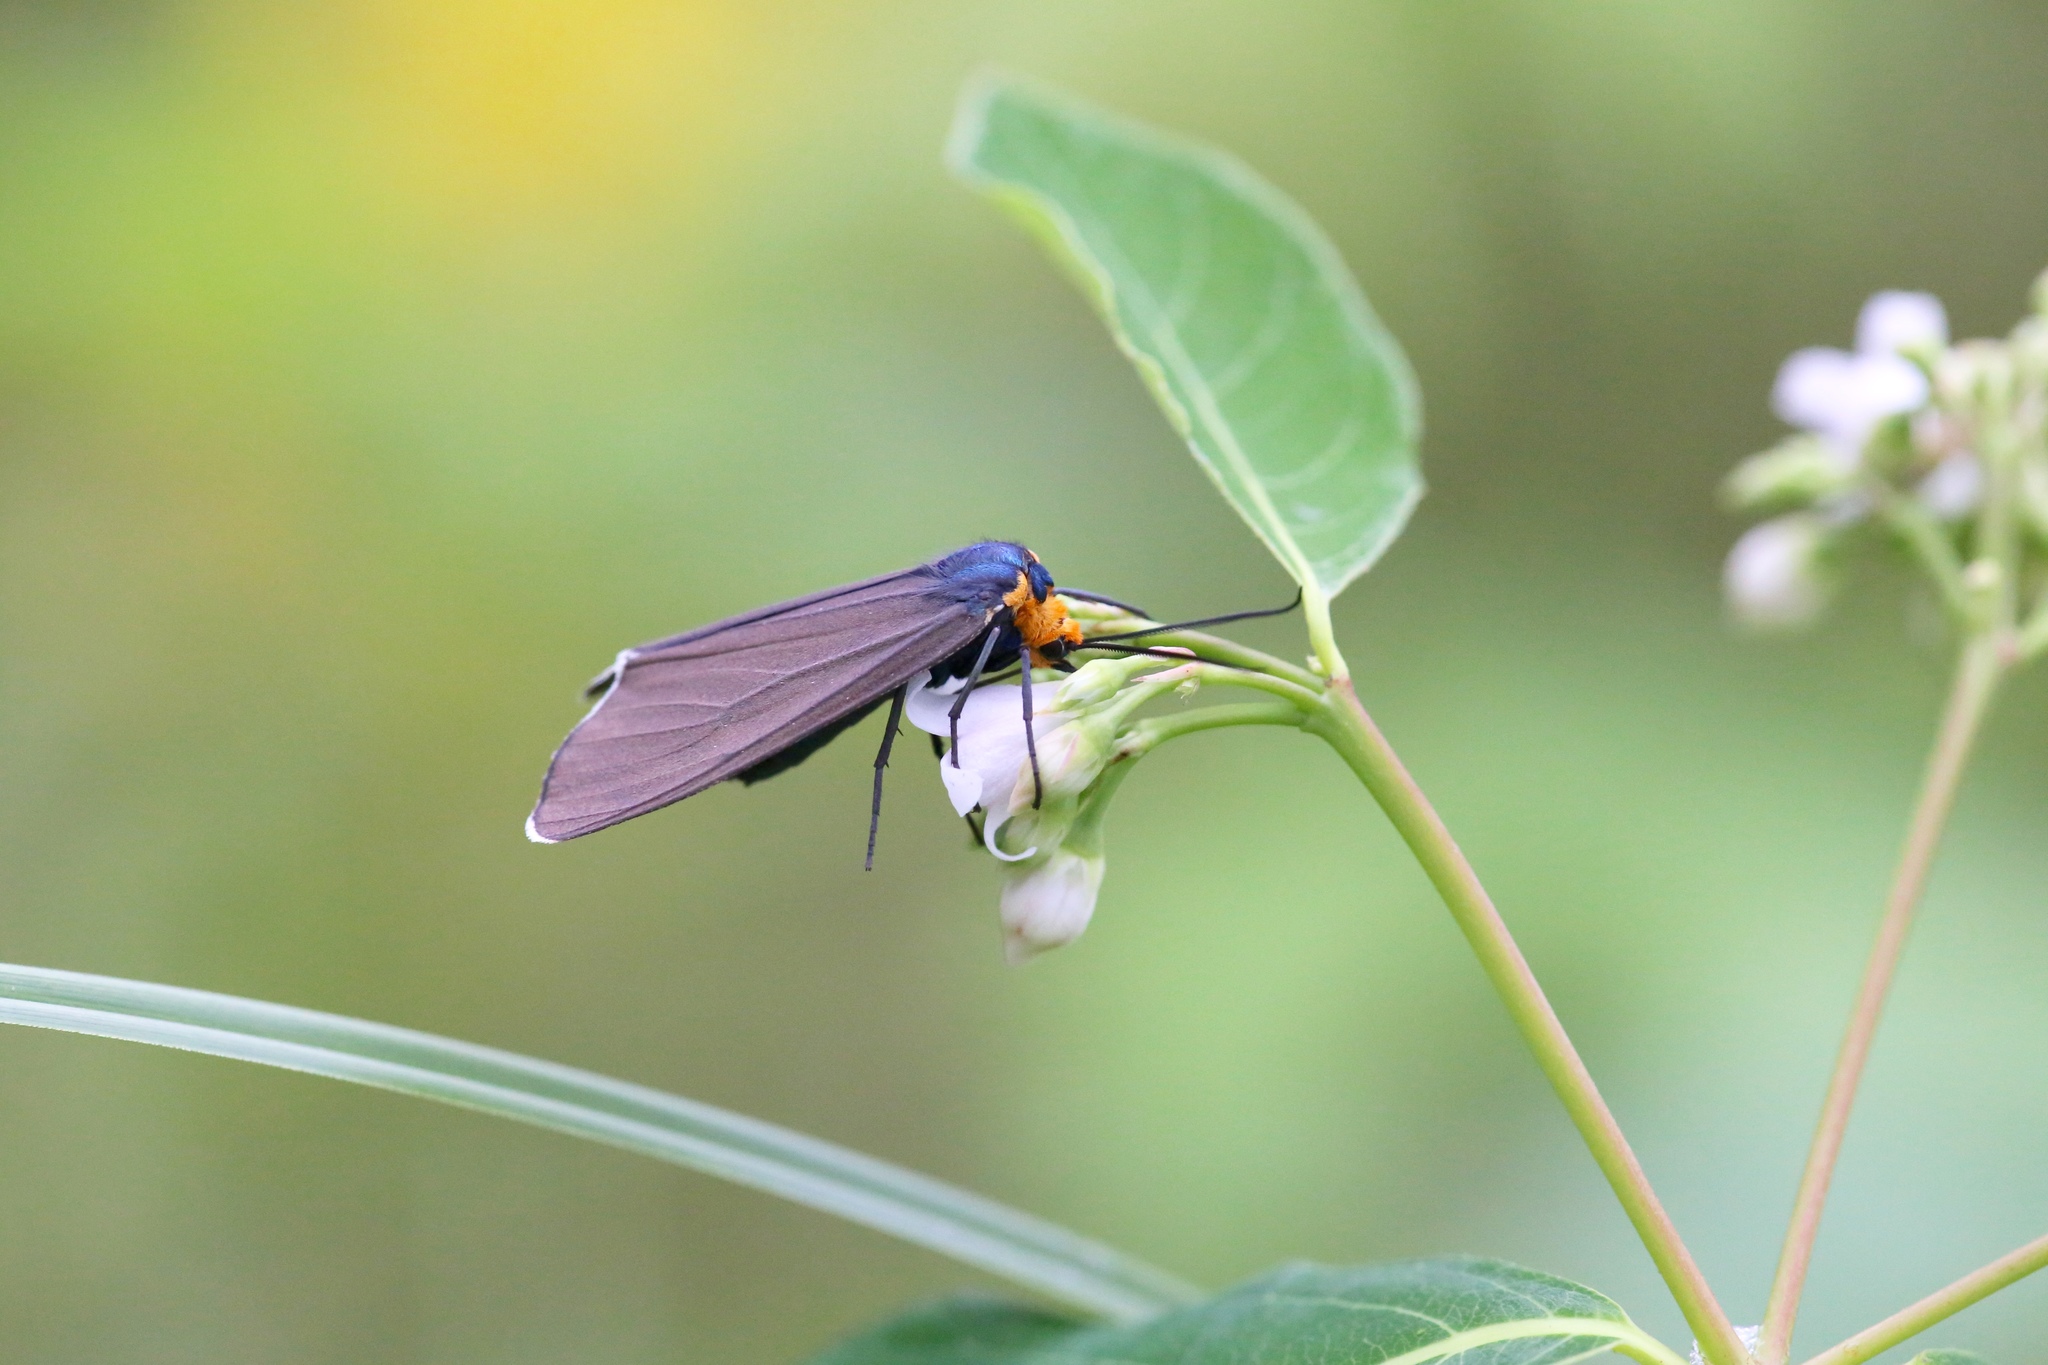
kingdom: Animalia
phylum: Arthropoda
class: Insecta
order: Lepidoptera
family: Erebidae
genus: Ctenucha
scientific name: Ctenucha virginica
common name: Virginia ctenucha moth
